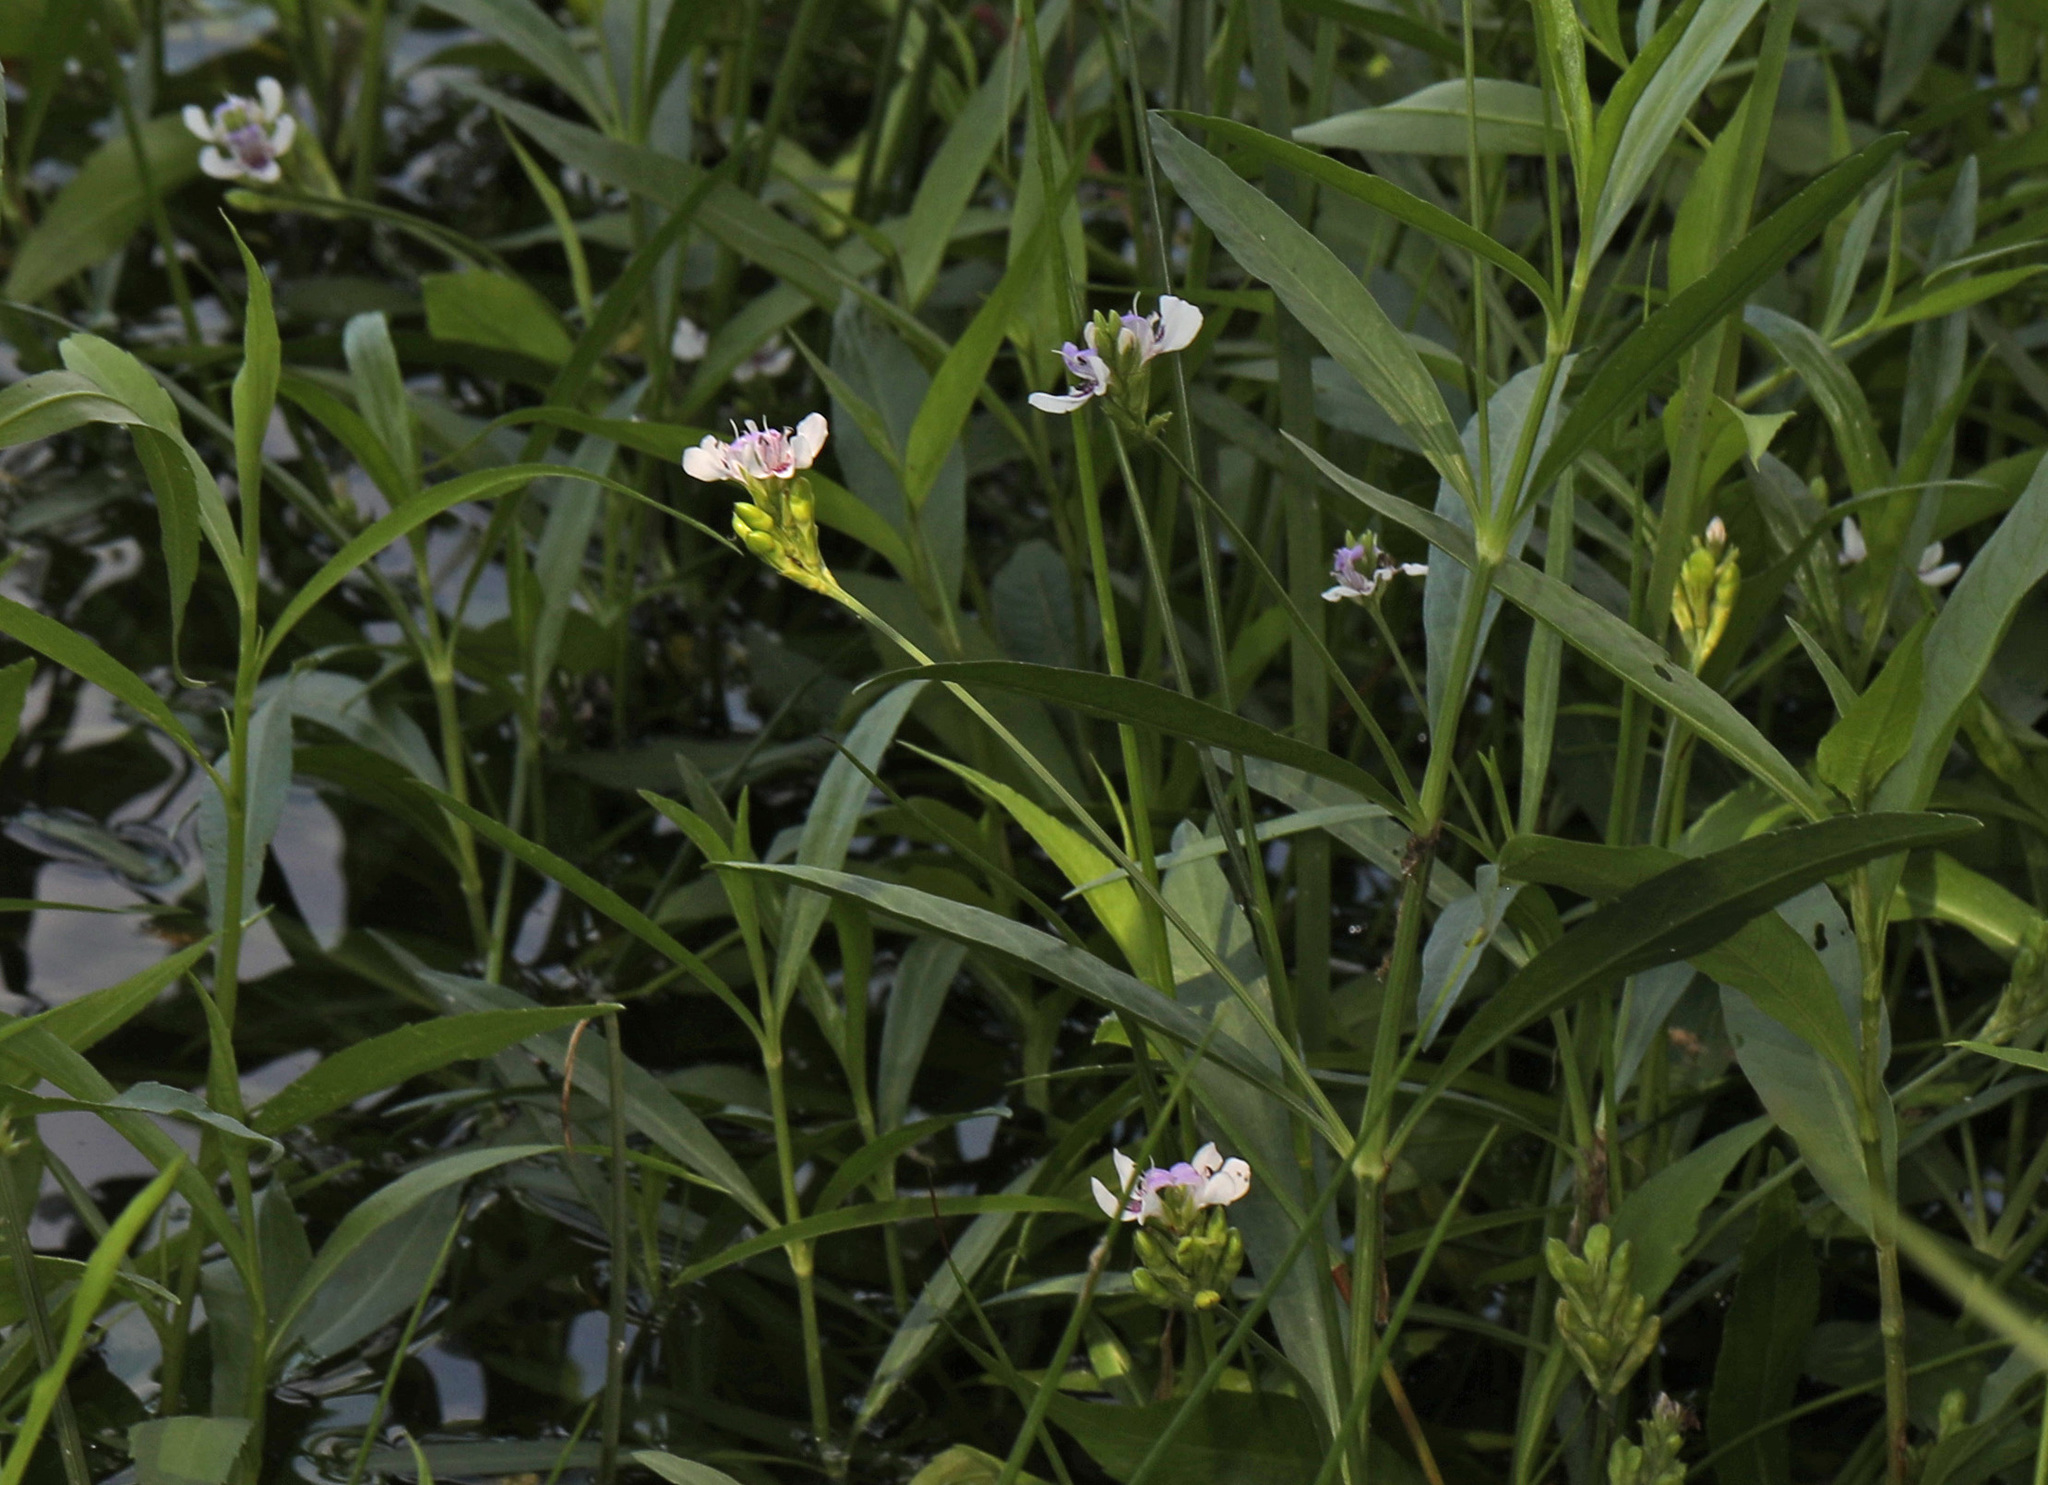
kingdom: Plantae
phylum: Tracheophyta
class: Magnoliopsida
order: Lamiales
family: Acanthaceae
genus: Dianthera
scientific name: Dianthera americana
